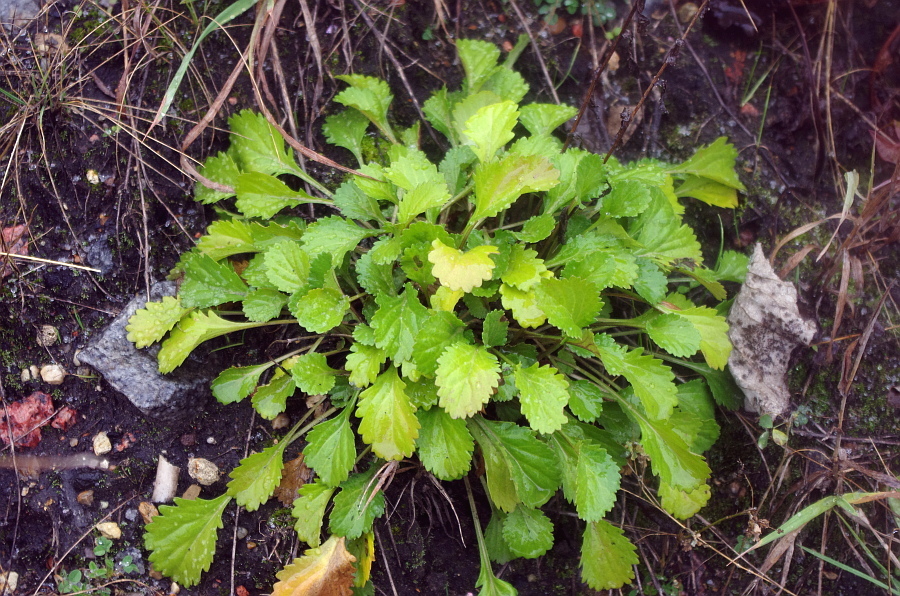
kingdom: Plantae
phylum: Tracheophyta
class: Magnoliopsida
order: Asterales
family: Asteraceae
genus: Leucanthemum
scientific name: Leucanthemum vulgare
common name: Oxeye daisy
